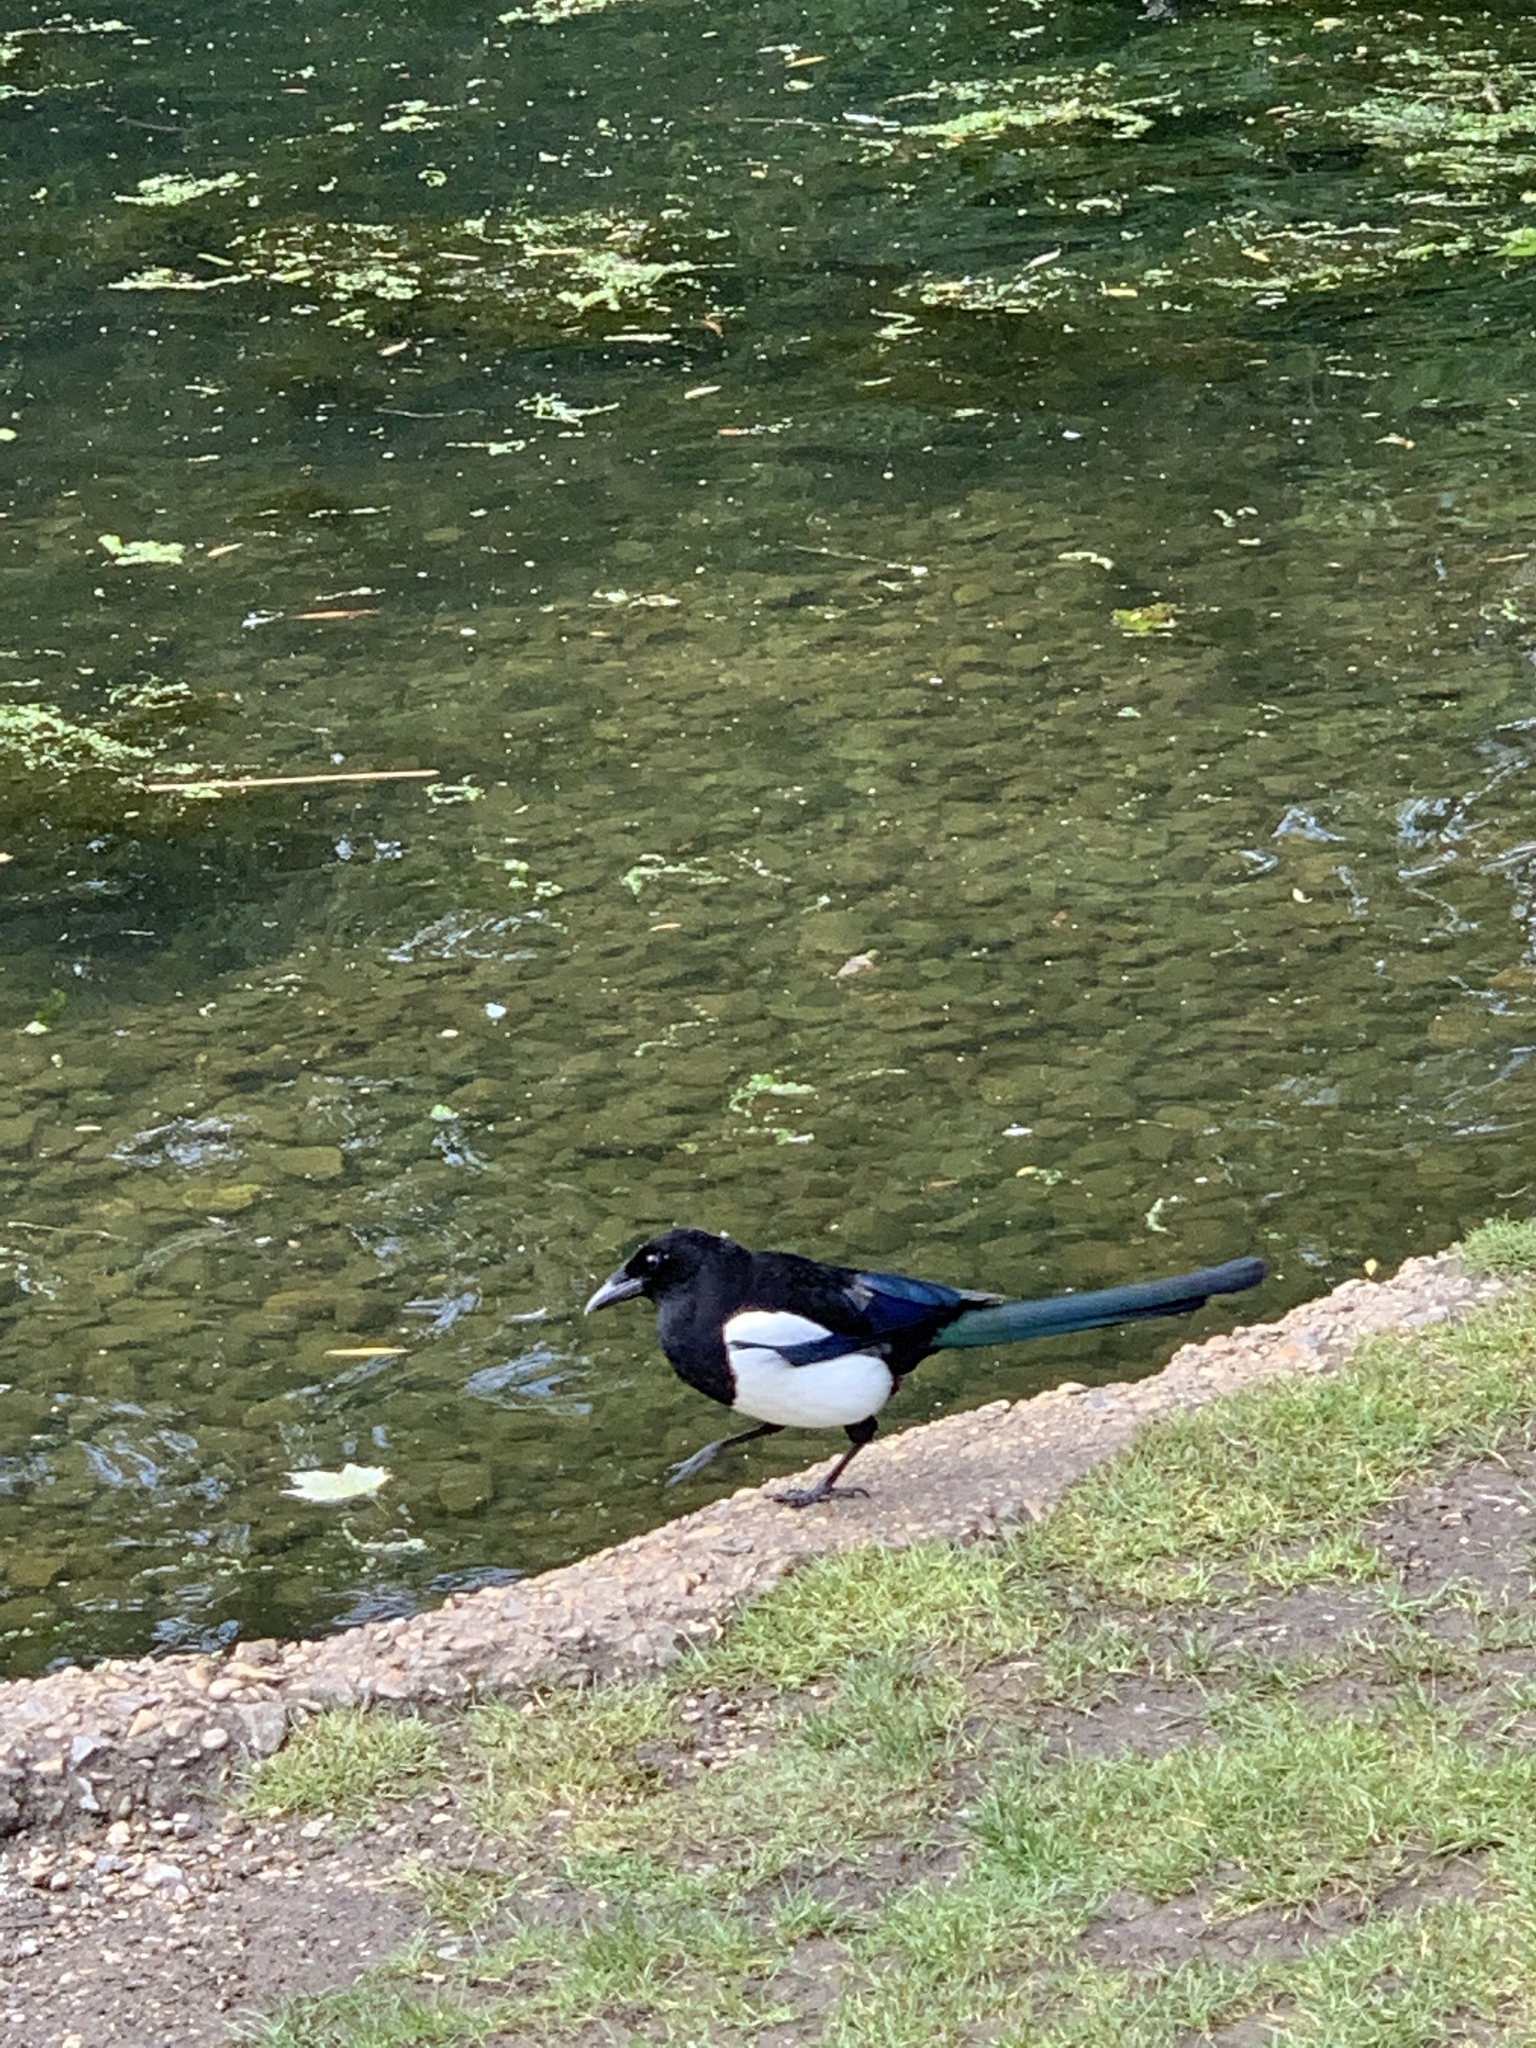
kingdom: Animalia
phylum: Chordata
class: Aves
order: Passeriformes
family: Corvidae
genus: Pica
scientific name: Pica pica
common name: Eurasian magpie
